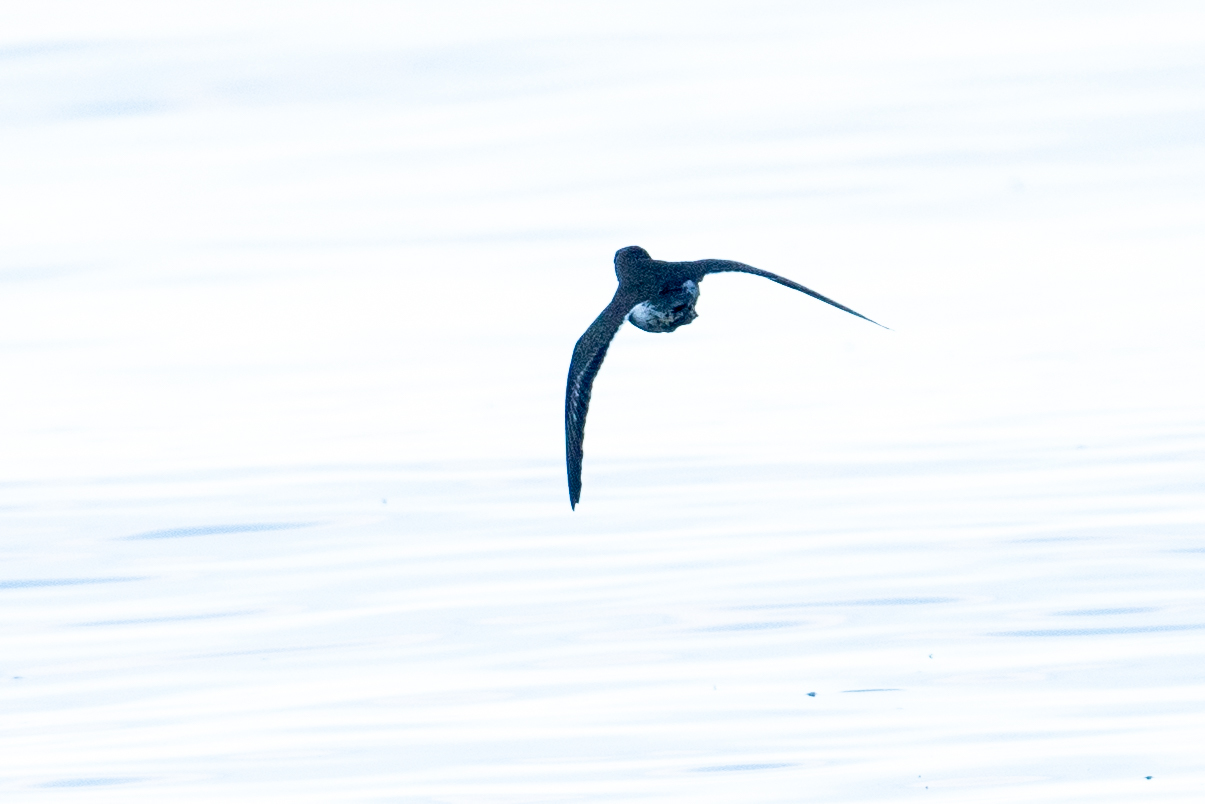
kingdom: Animalia
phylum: Chordata
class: Aves
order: Charadriiformes
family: Scolopacidae
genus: Actitis
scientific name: Actitis macularius
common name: Spotted sandpiper
